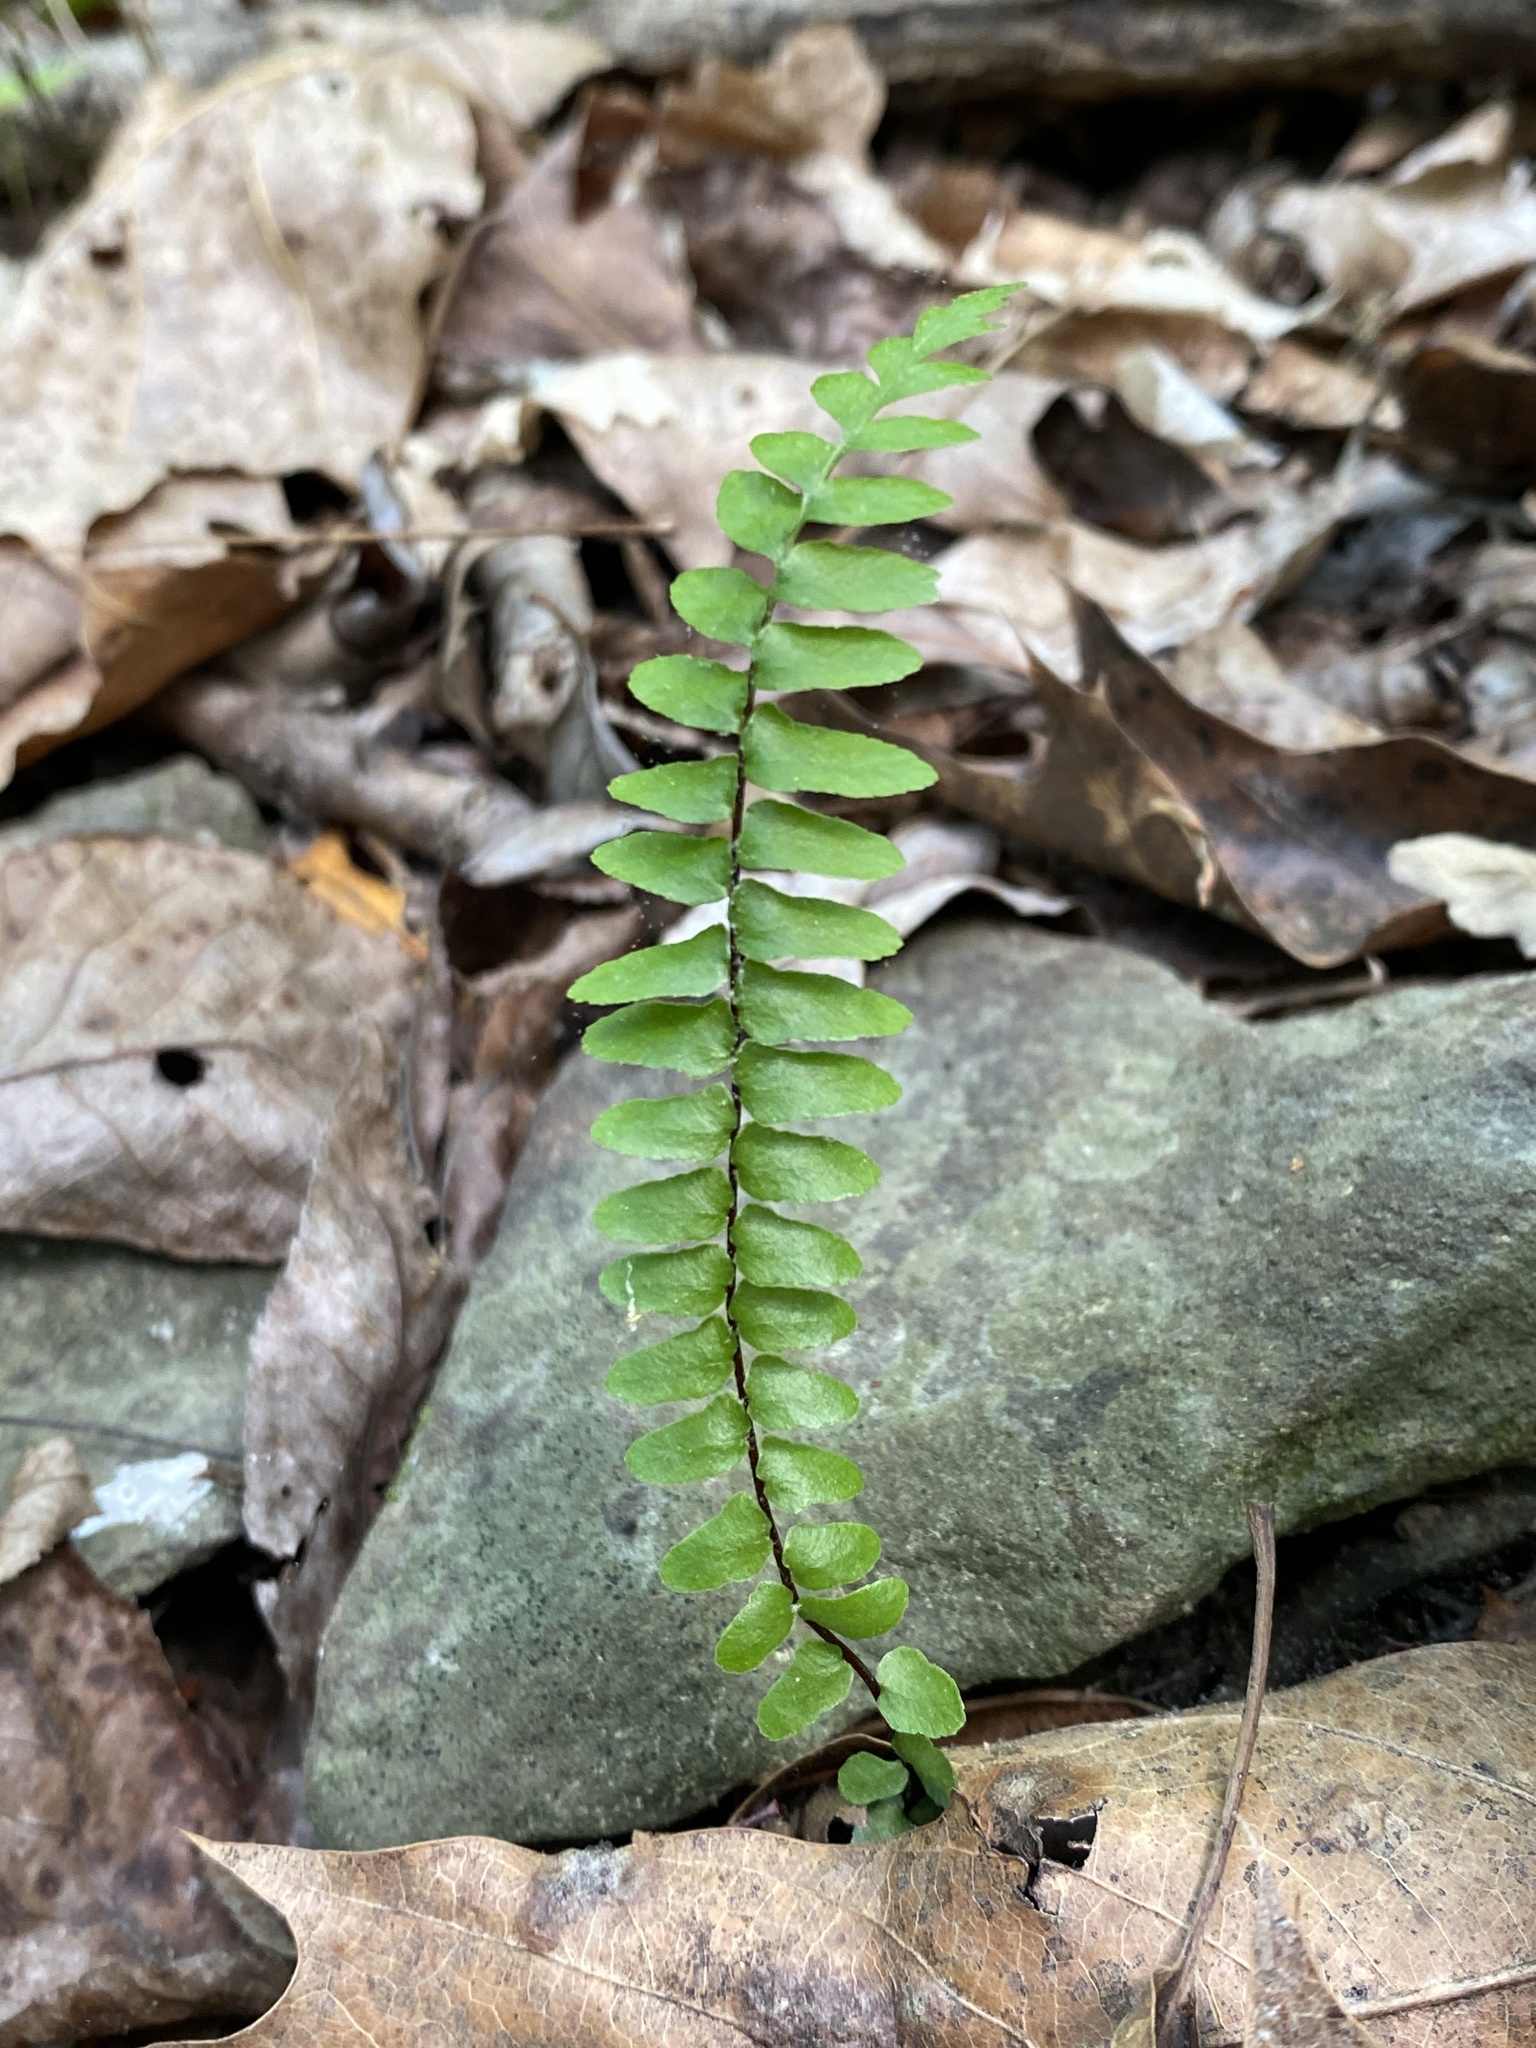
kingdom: Plantae
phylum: Tracheophyta
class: Polypodiopsida
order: Polypodiales
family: Aspleniaceae
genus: Asplenium
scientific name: Asplenium platyneuron
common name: Ebony spleenwort
